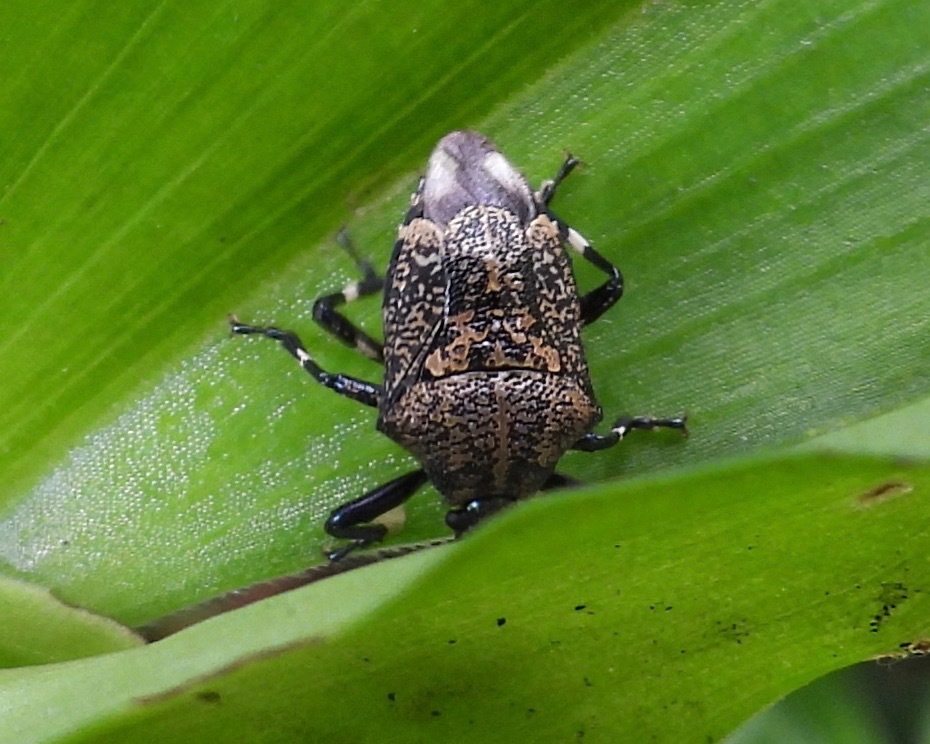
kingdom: Animalia
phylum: Arthropoda
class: Insecta
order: Hemiptera
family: Pentatomidae
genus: Oplomus
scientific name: Oplomus
